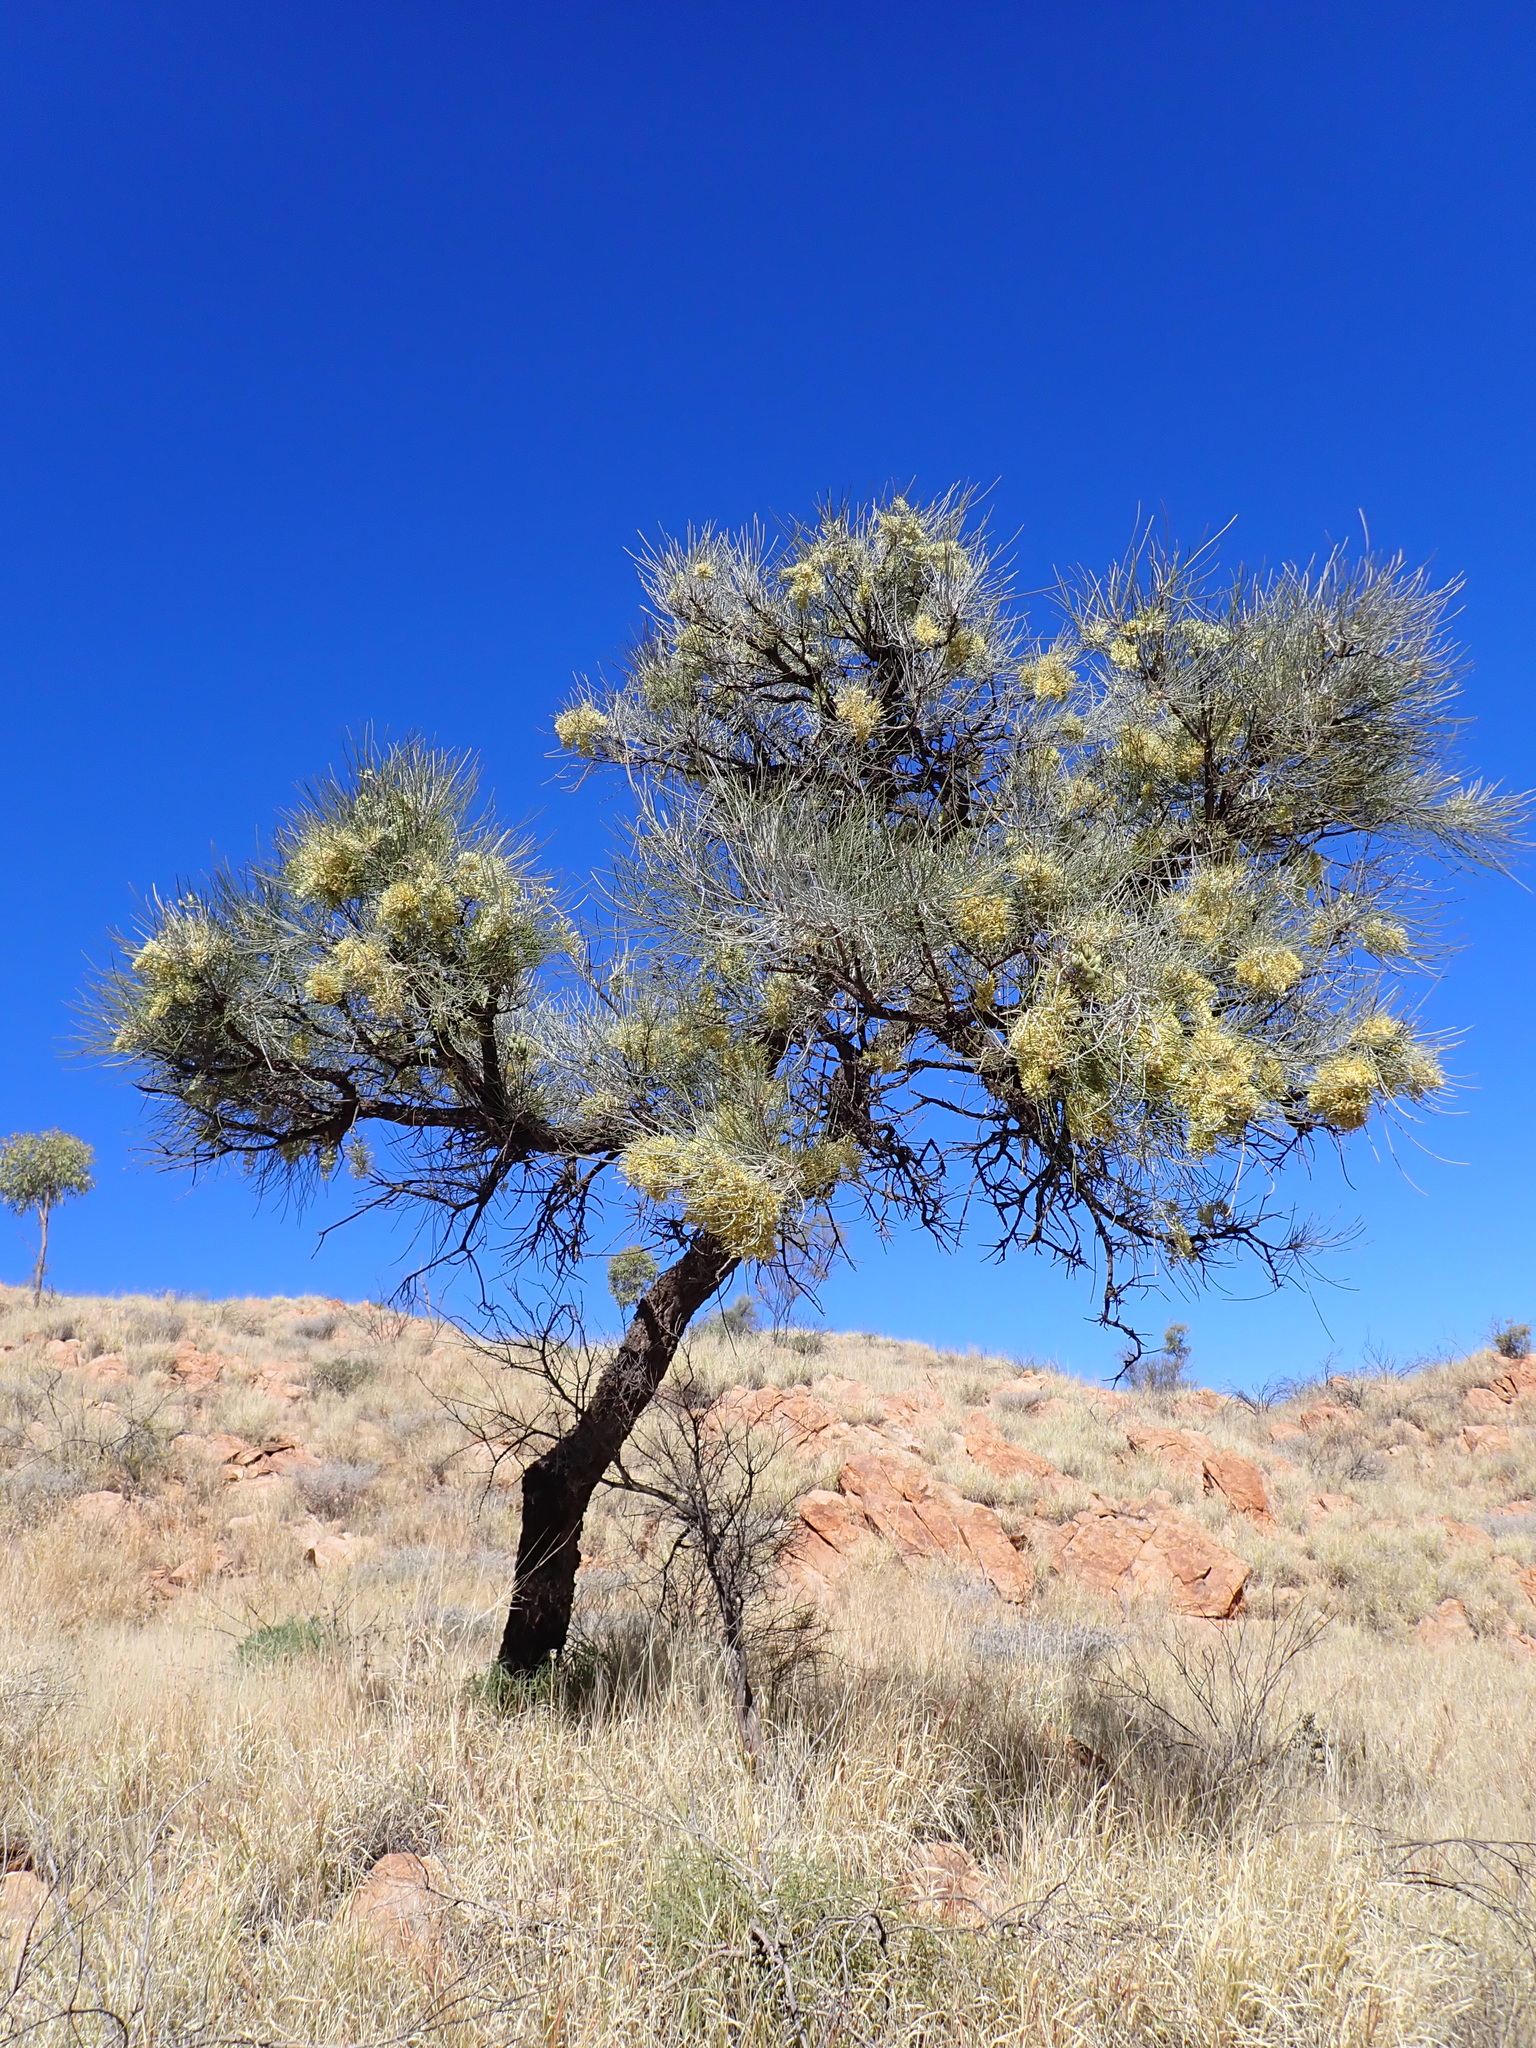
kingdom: Plantae
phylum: Tracheophyta
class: Magnoliopsida
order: Proteales
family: Proteaceae
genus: Hakea
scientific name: Hakea lorea
